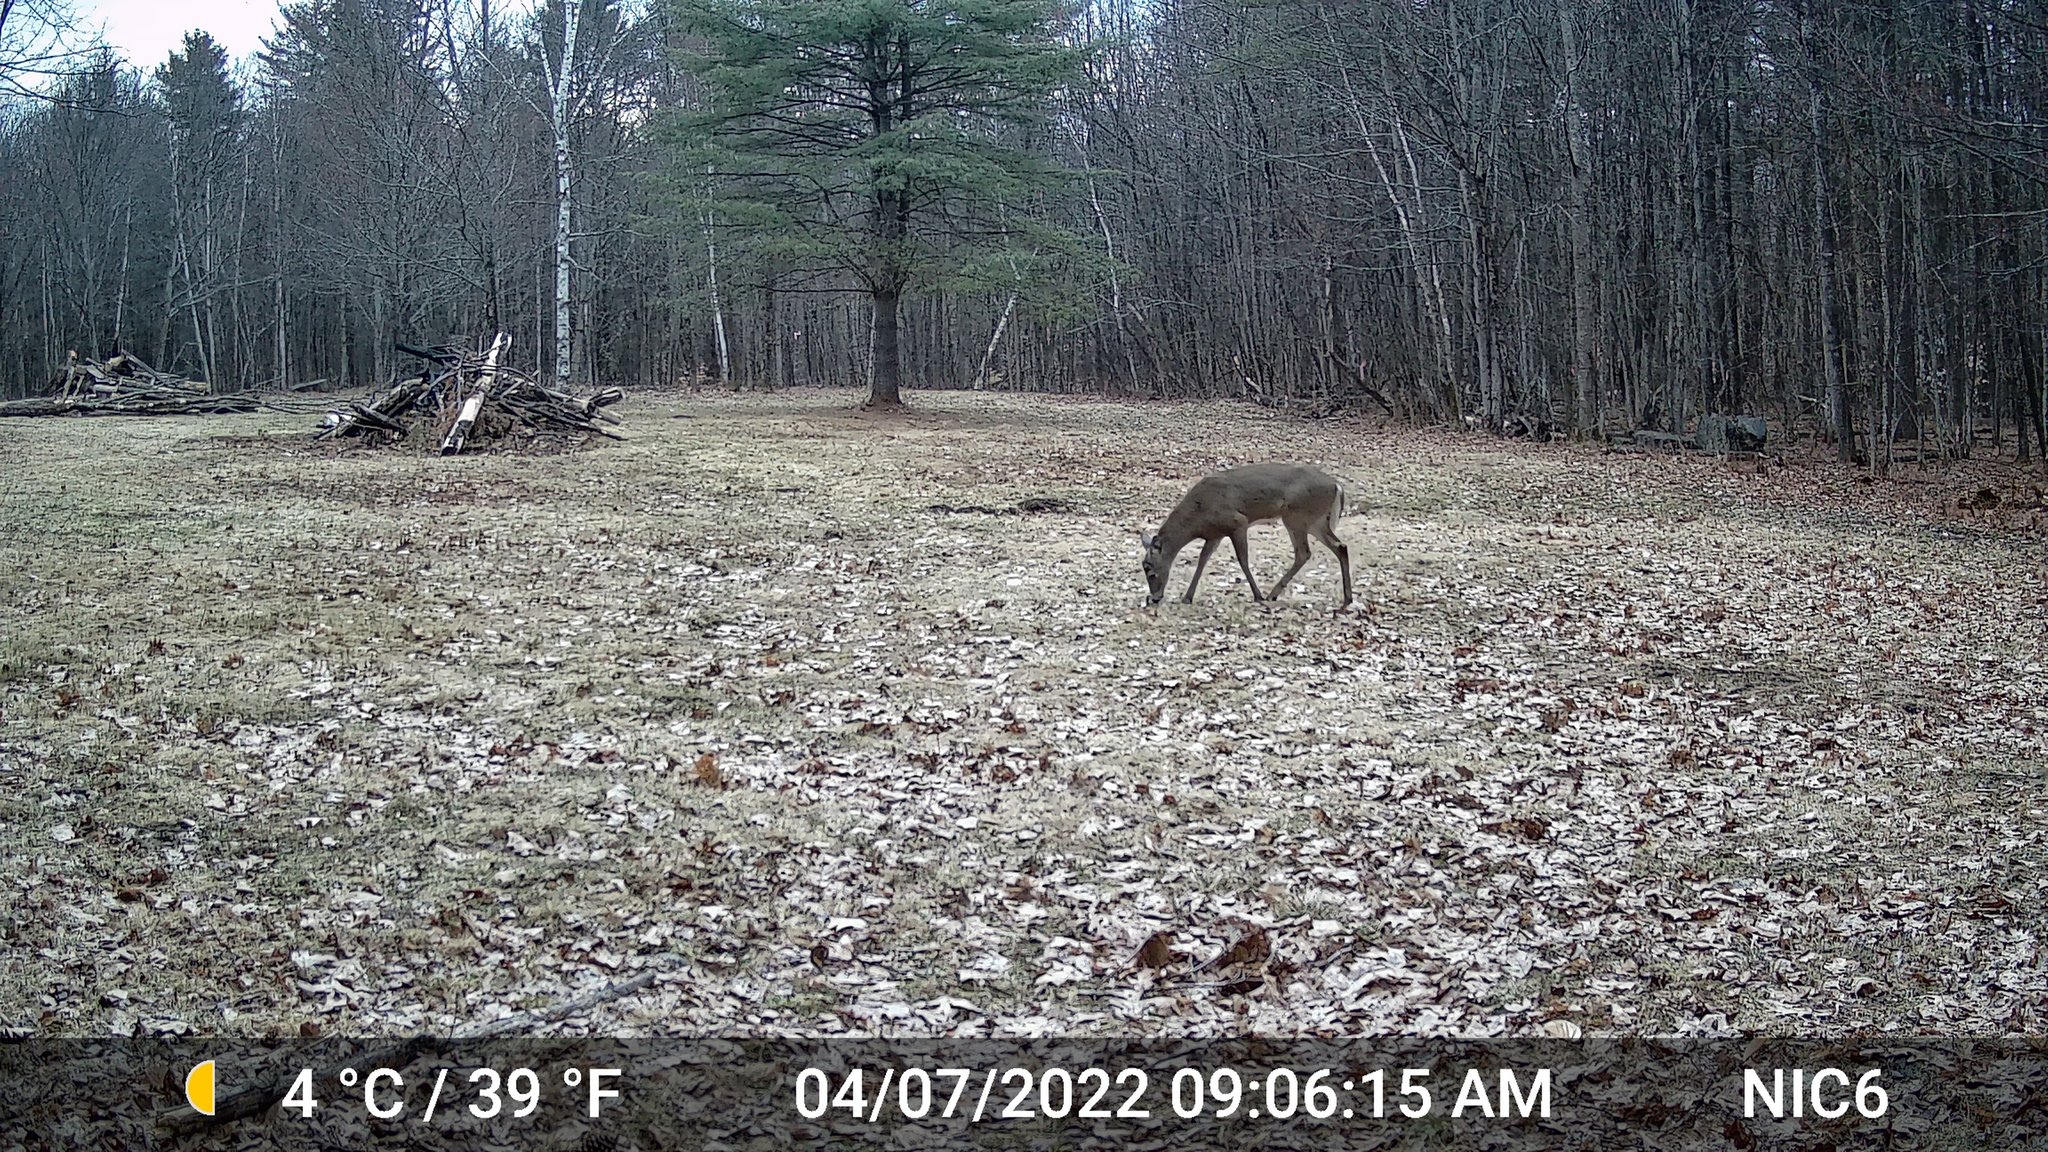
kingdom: Animalia
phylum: Chordata
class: Mammalia
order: Artiodactyla
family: Cervidae
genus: Odocoileus
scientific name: Odocoileus virginianus
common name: White-tailed deer
